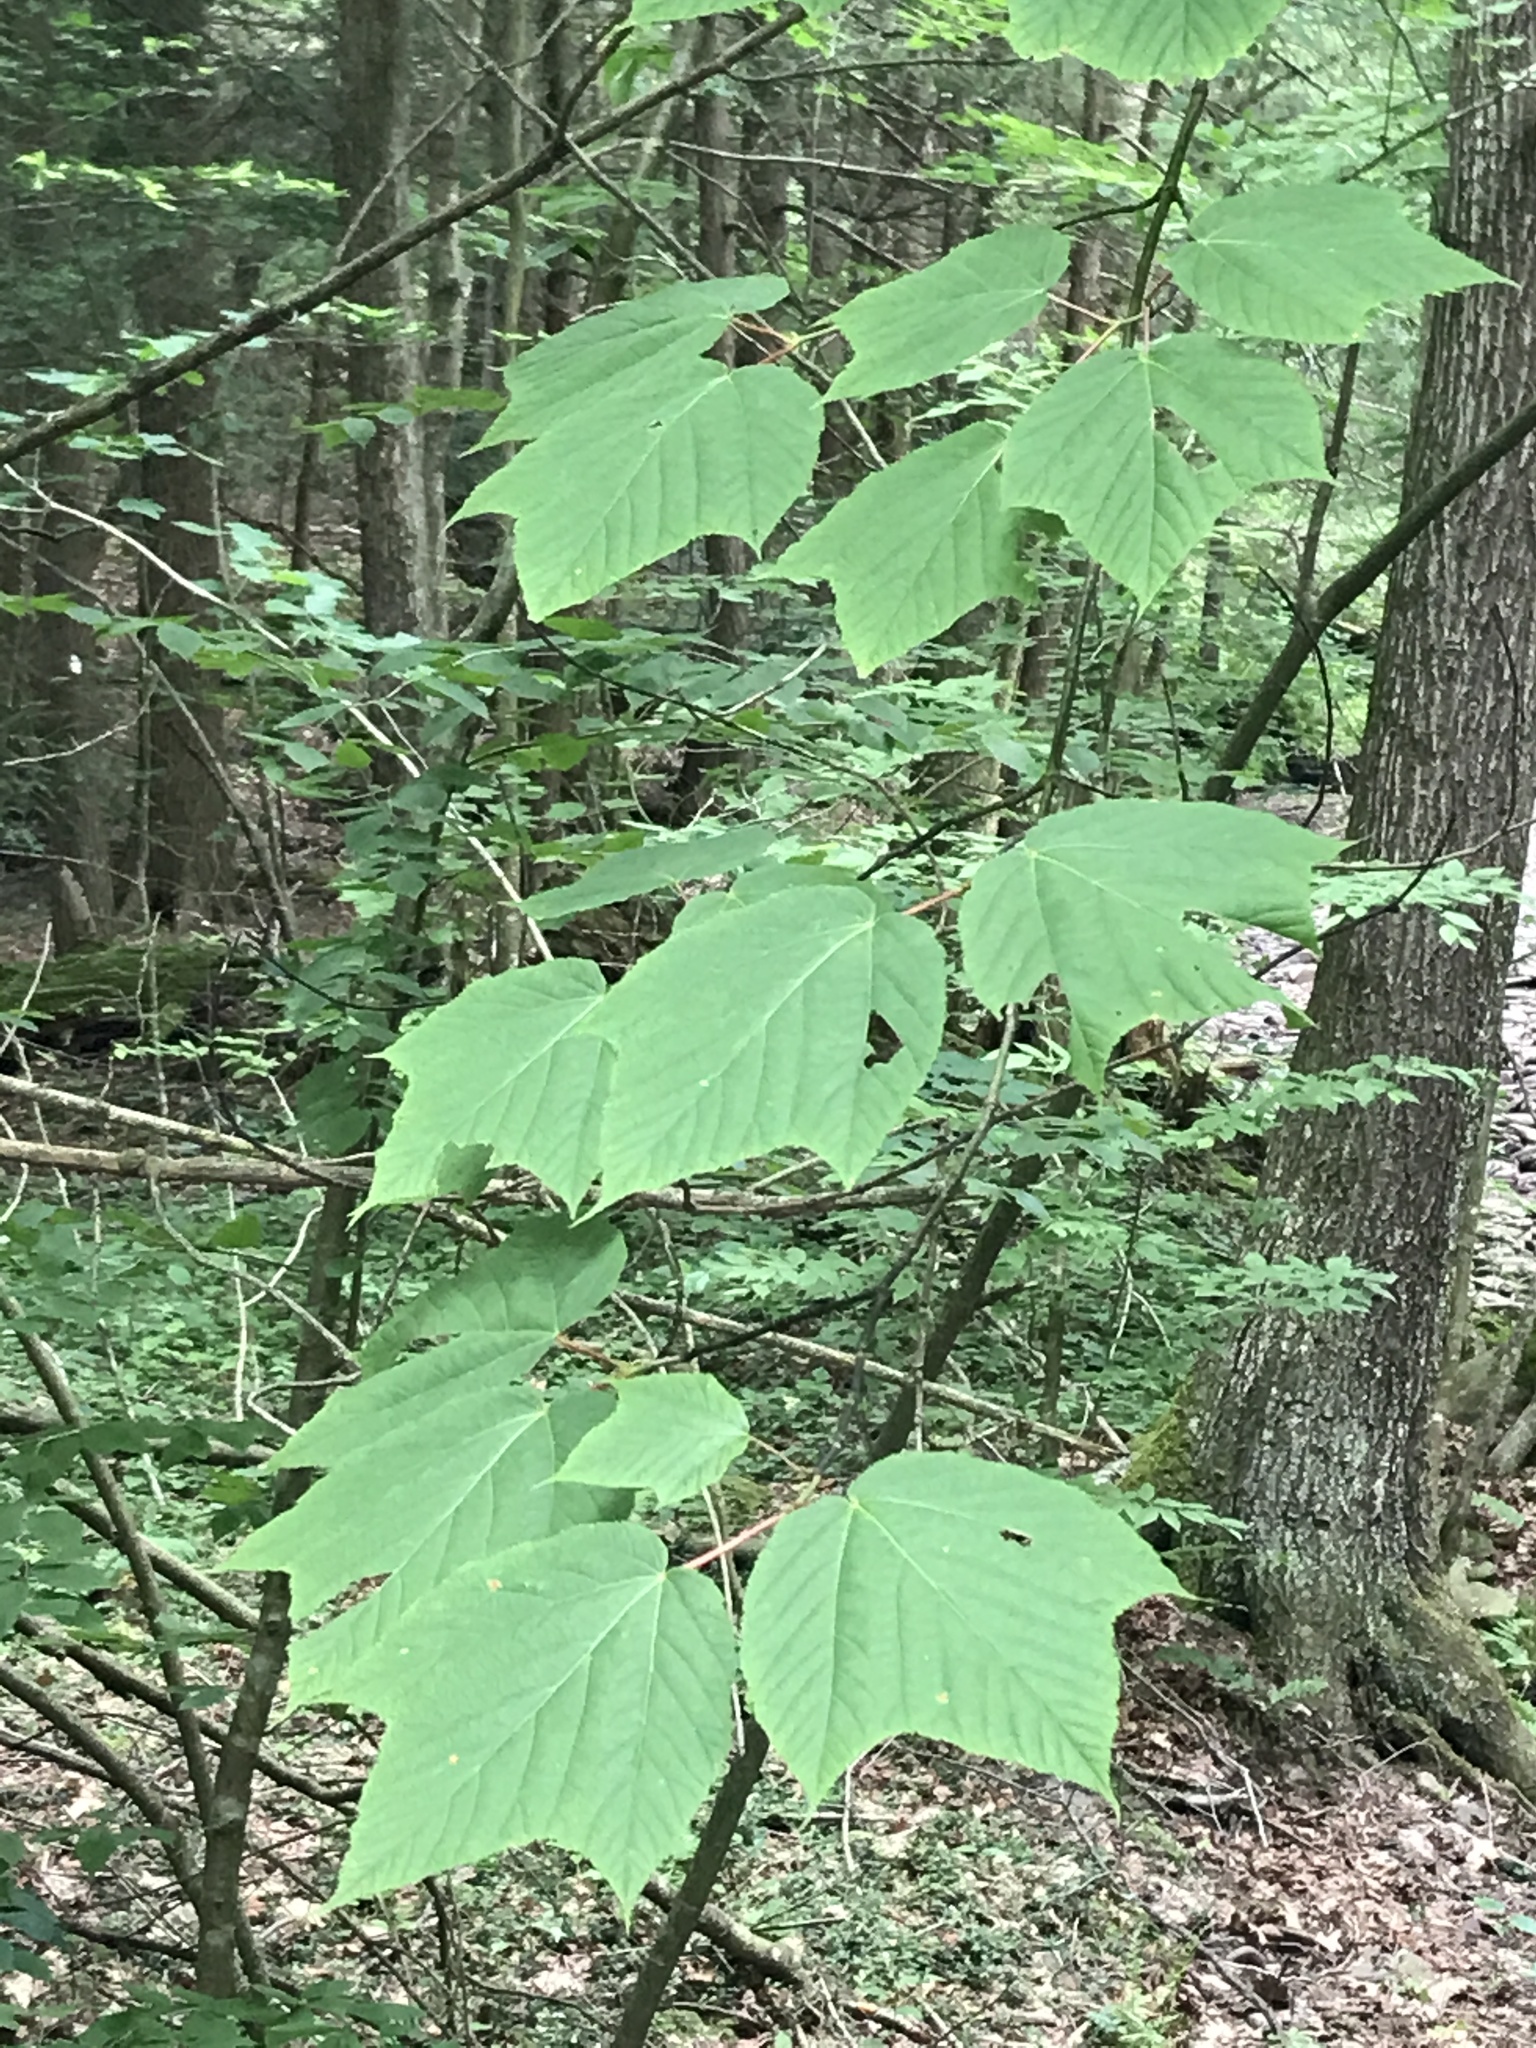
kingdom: Plantae
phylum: Tracheophyta
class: Magnoliopsida
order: Sapindales
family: Sapindaceae
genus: Acer
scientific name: Acer pensylvanicum
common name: Moosewood
